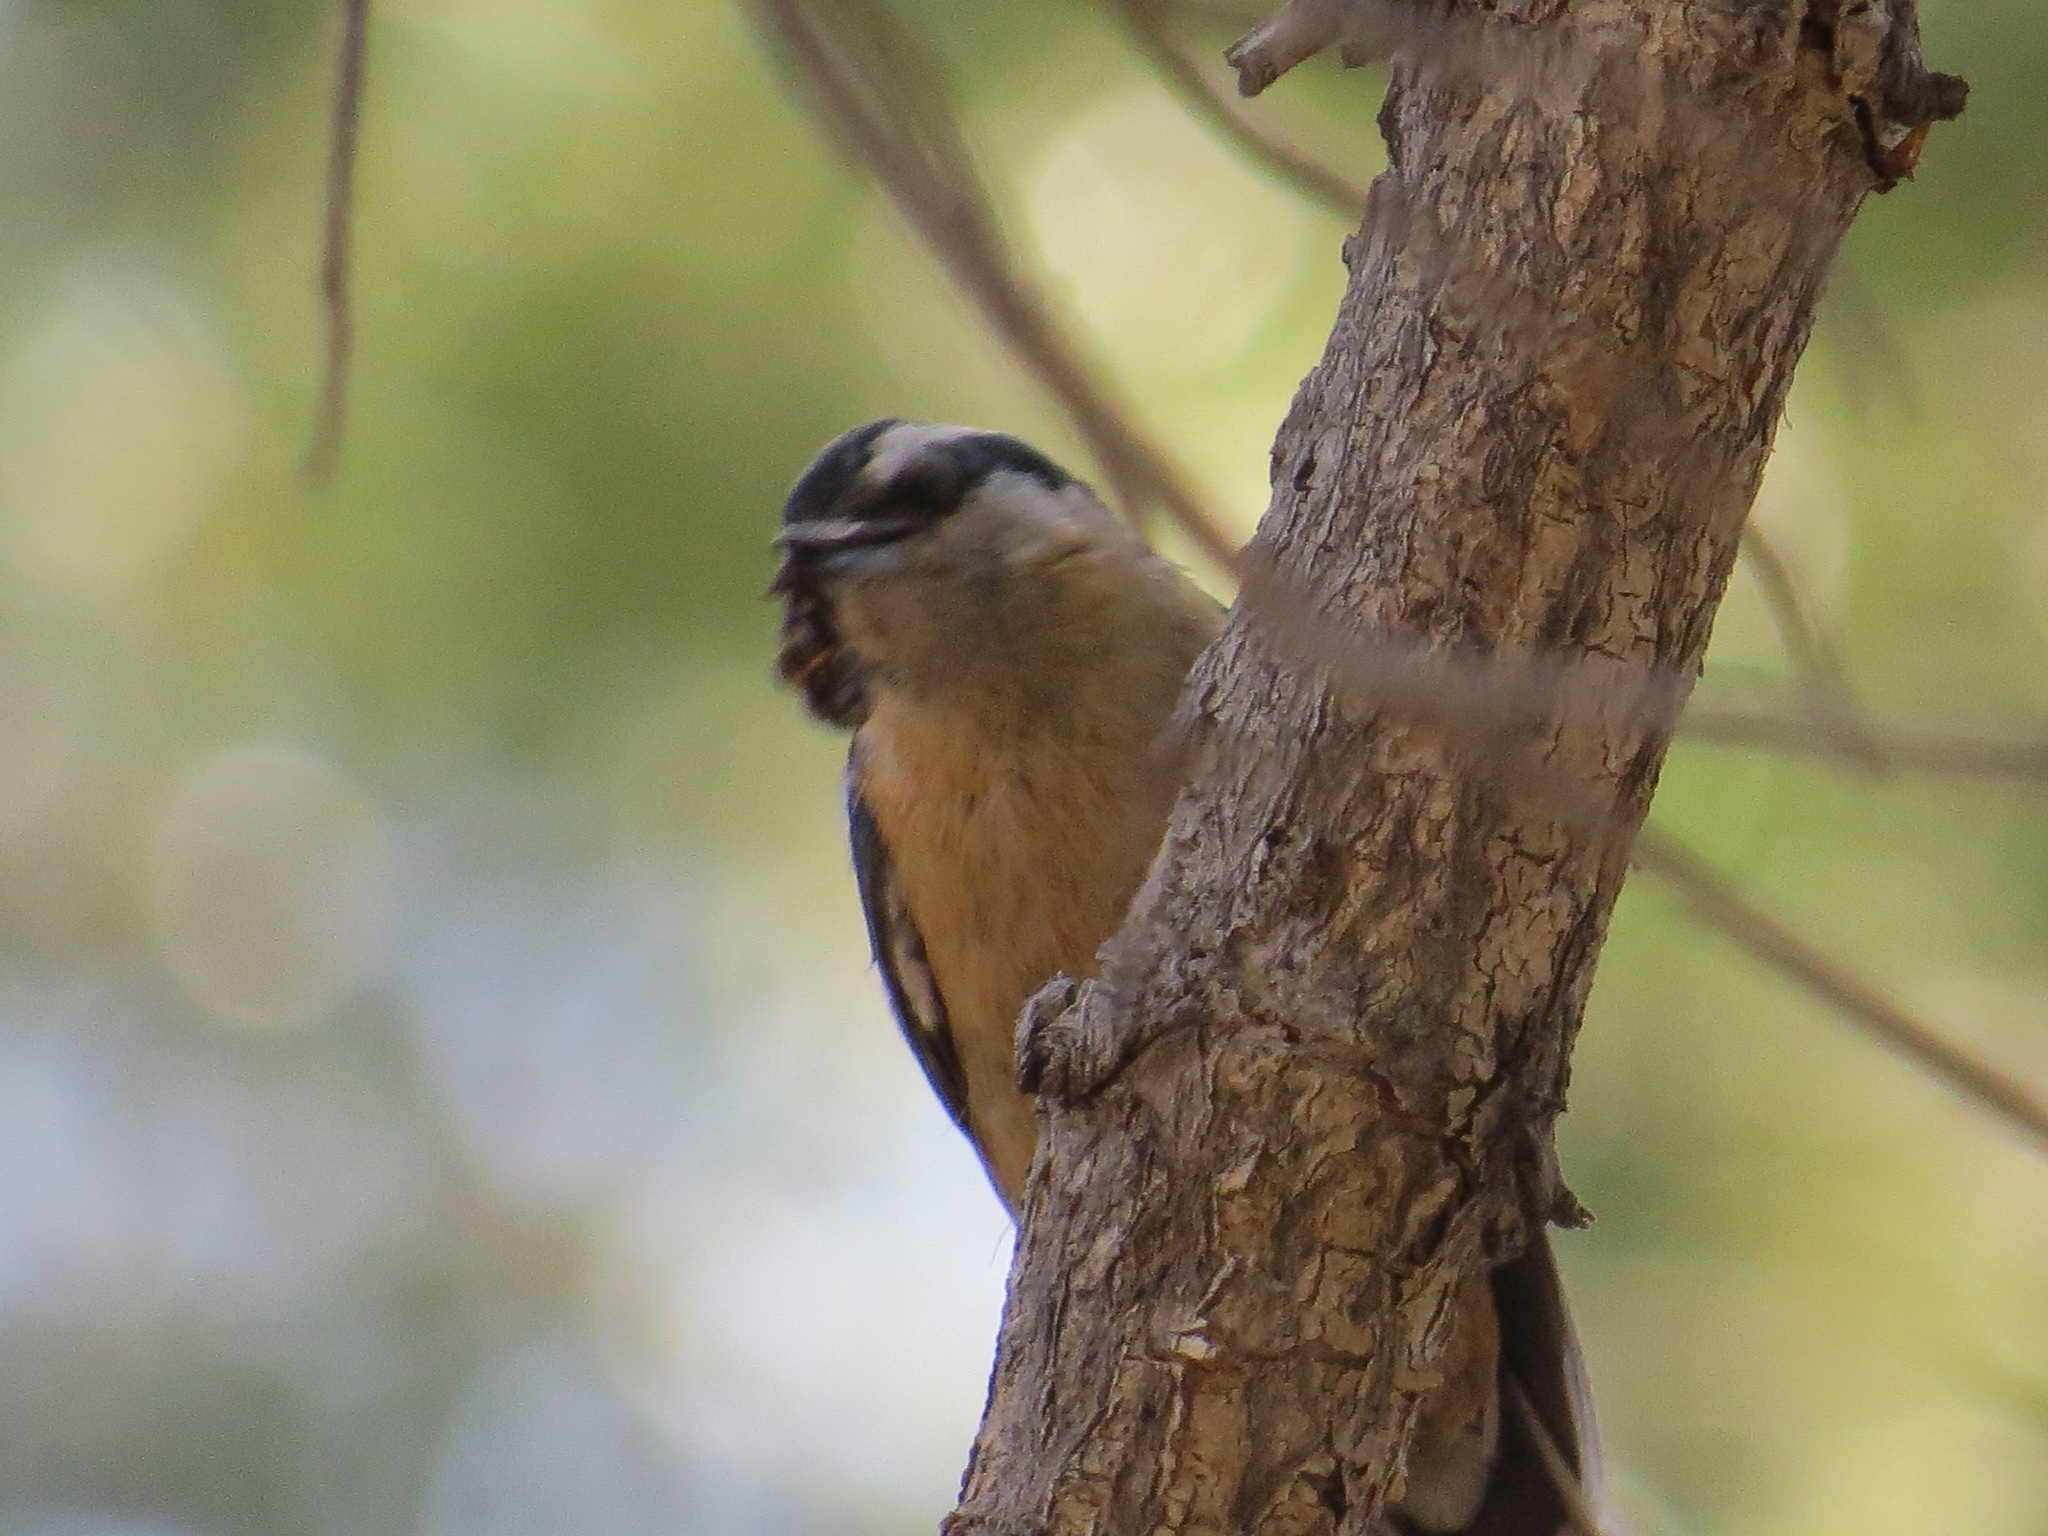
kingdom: Animalia
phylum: Chordata
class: Aves
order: Passeriformes
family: Sittidae
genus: Sitta
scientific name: Sitta canadensis
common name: Red-breasted nuthatch
